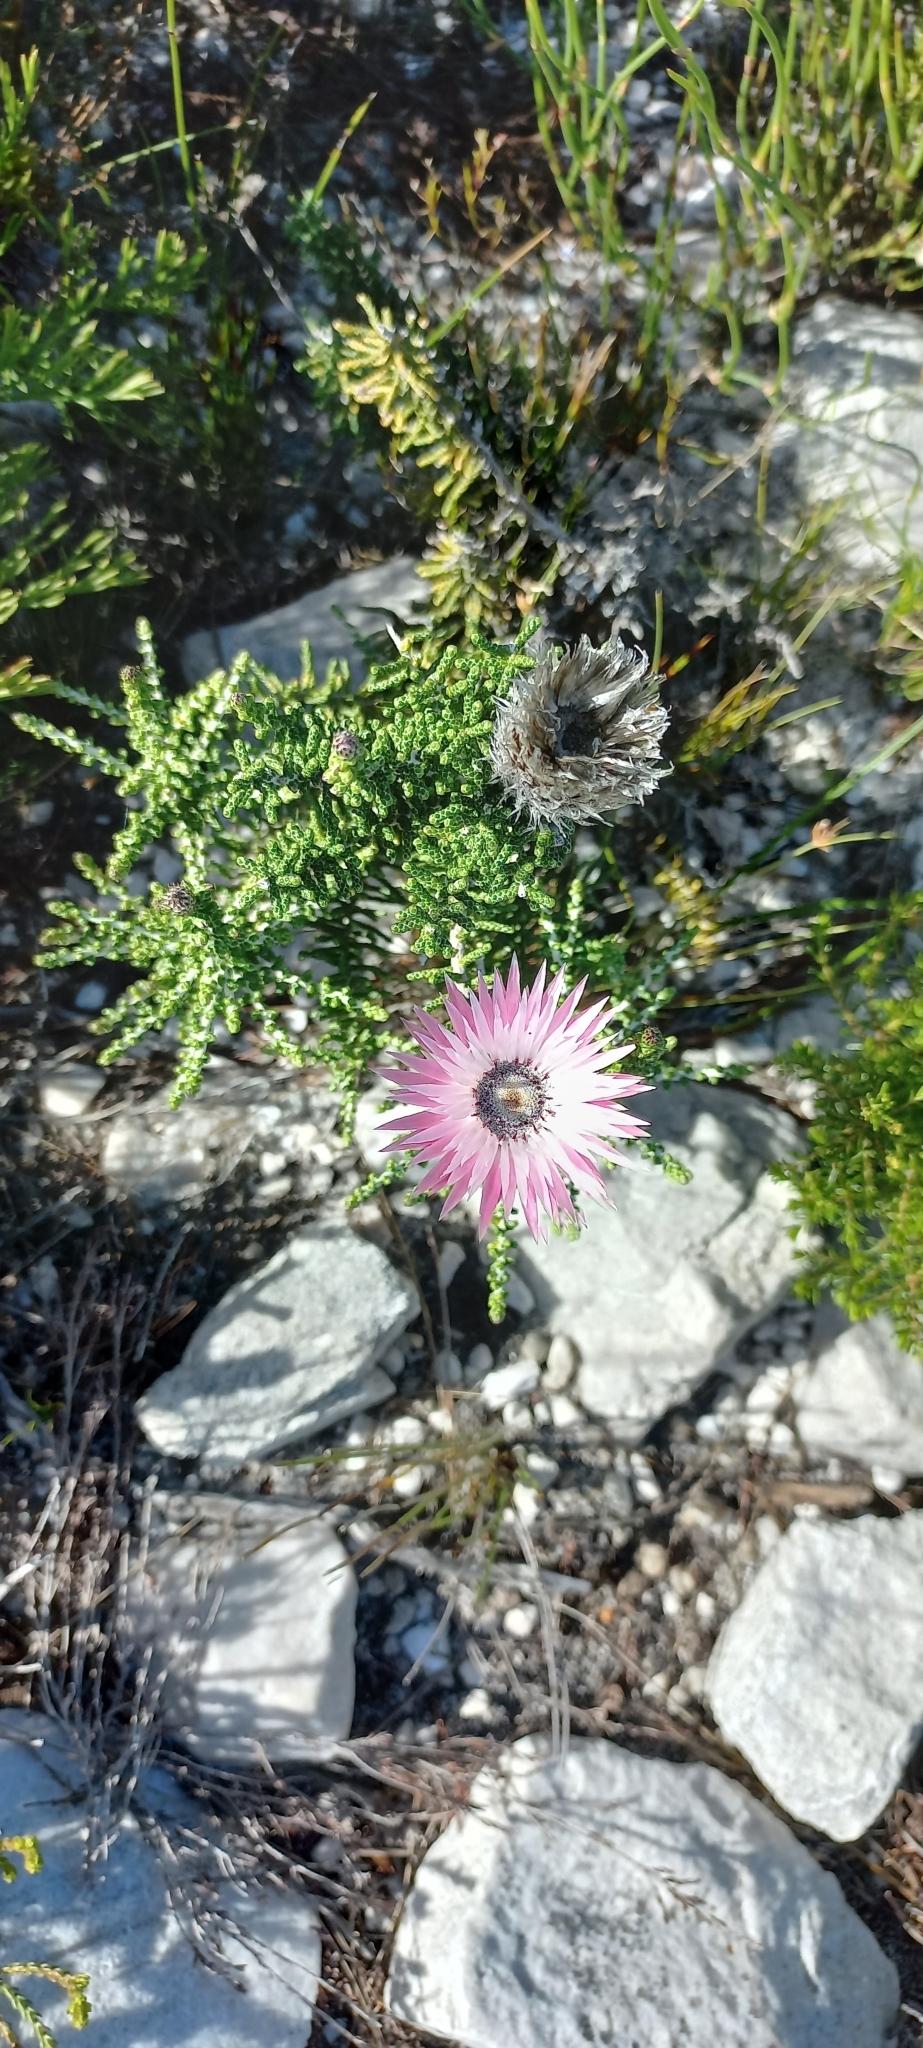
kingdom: Plantae
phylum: Tracheophyta
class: Magnoliopsida
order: Asterales
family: Asteraceae
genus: Phaenocoma
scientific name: Phaenocoma prolifera
